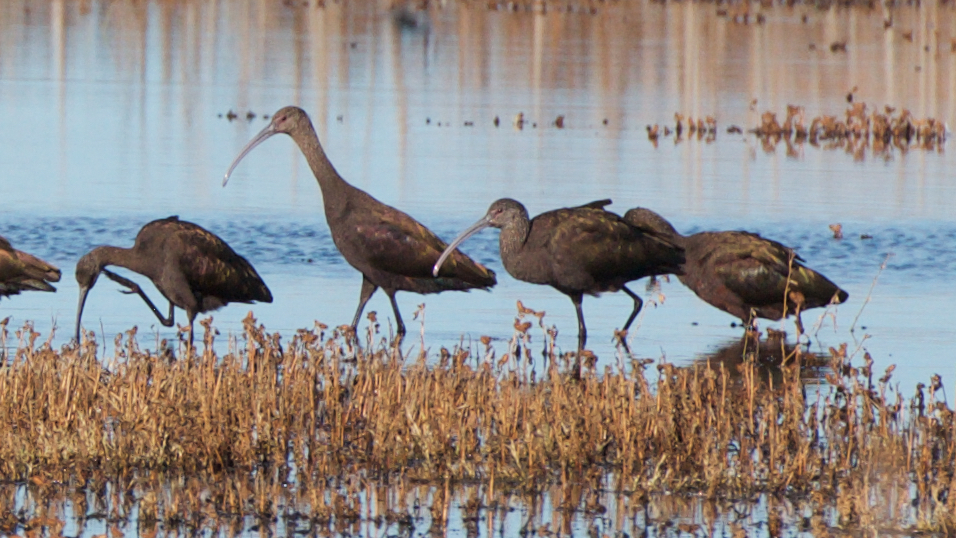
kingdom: Animalia
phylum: Chordata
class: Aves
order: Pelecaniformes
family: Threskiornithidae
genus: Plegadis
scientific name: Plegadis chihi
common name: White-faced ibis
